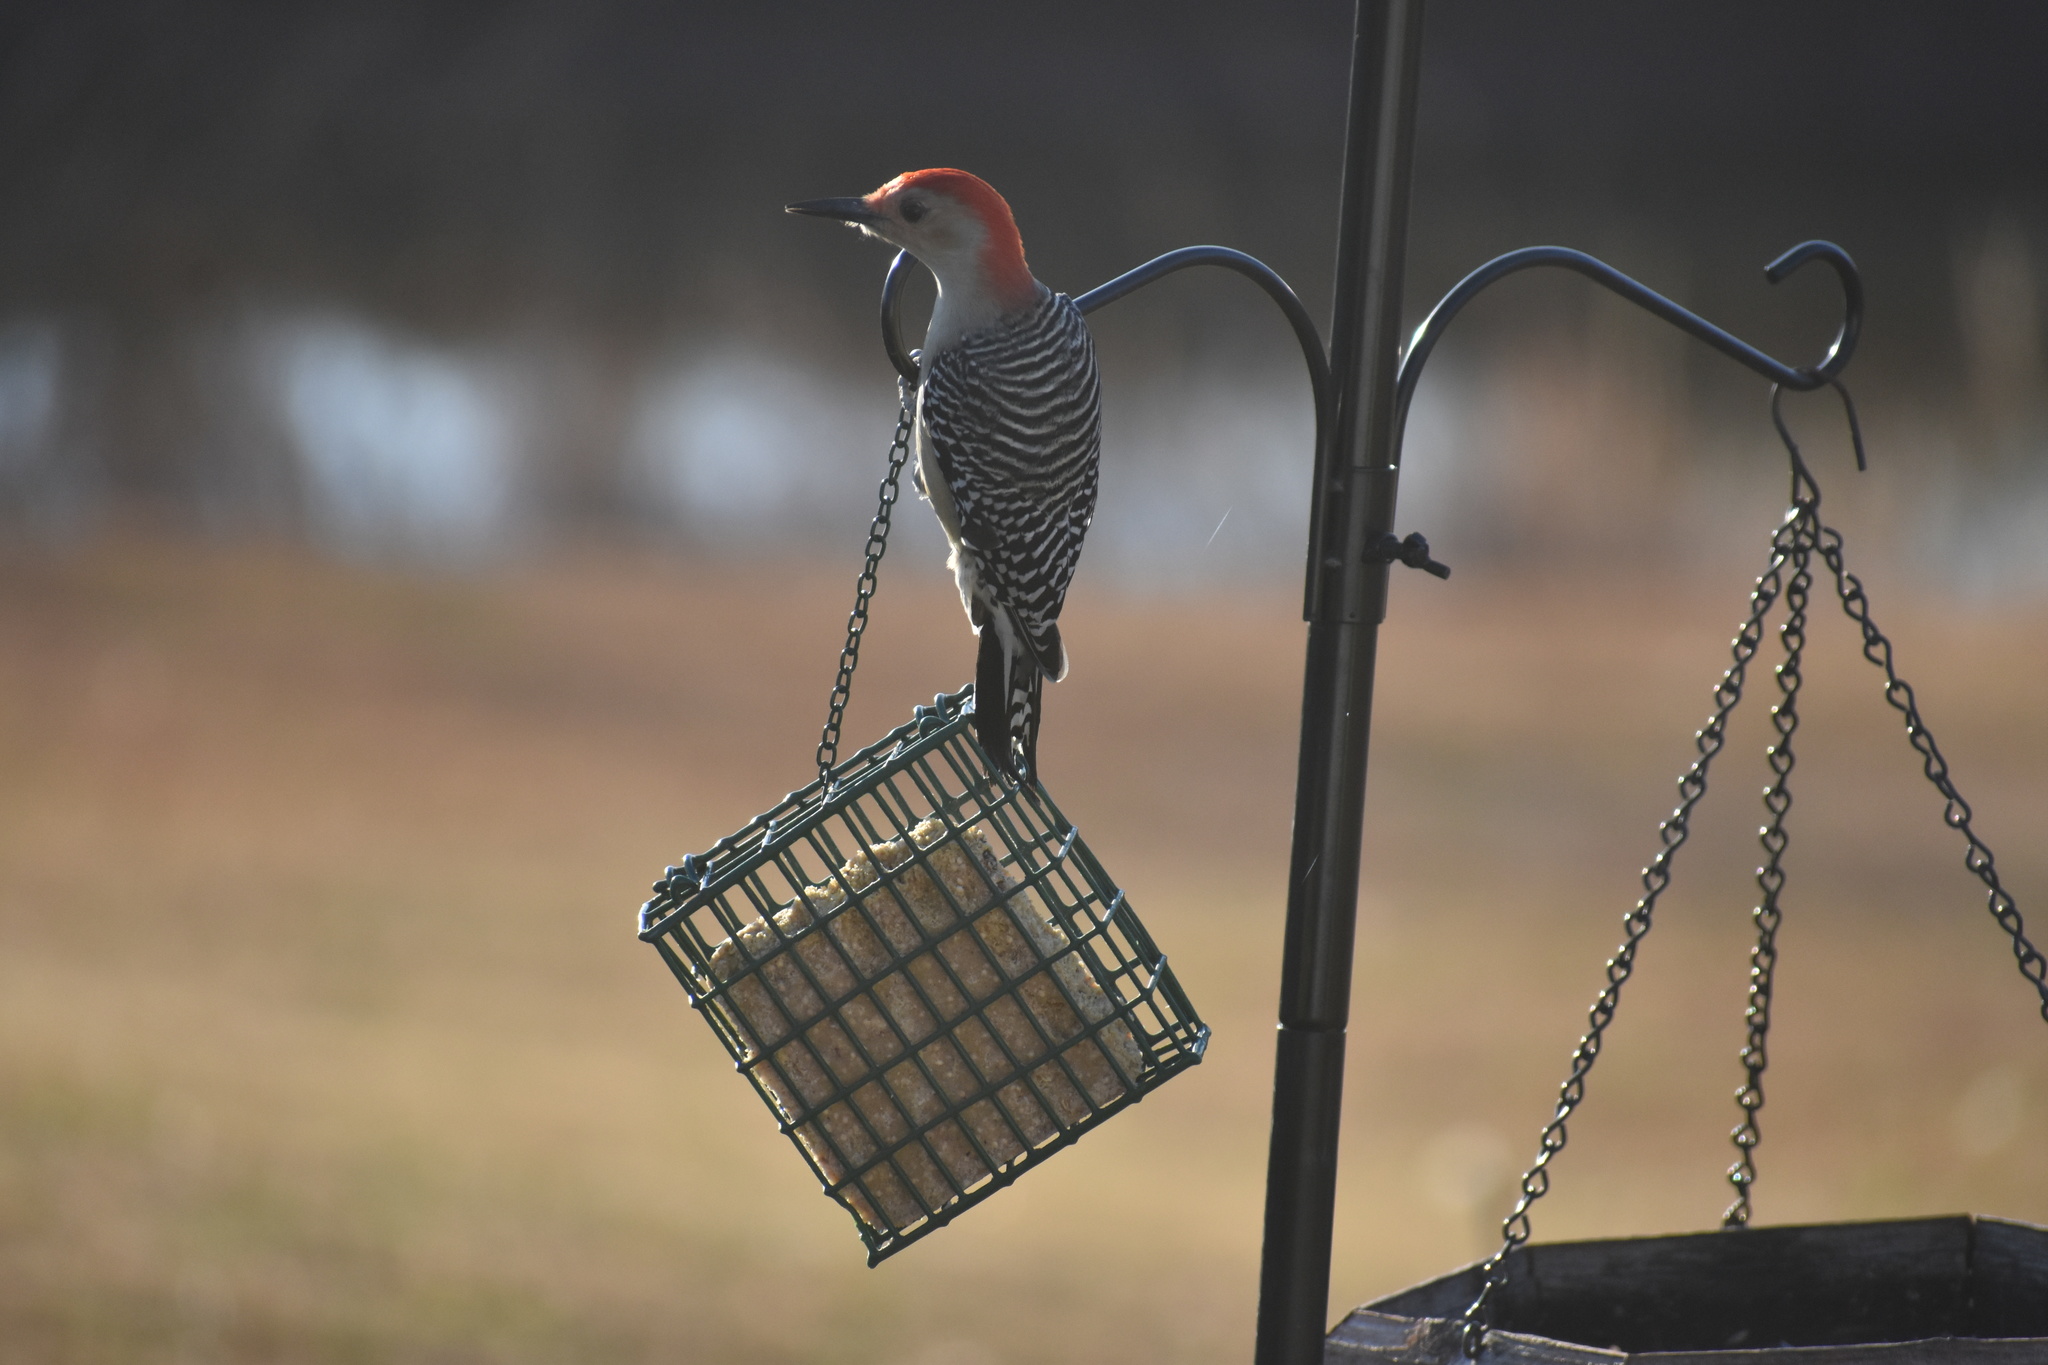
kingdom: Animalia
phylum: Chordata
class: Aves
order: Piciformes
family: Picidae
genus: Melanerpes
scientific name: Melanerpes carolinus
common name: Red-bellied woodpecker
